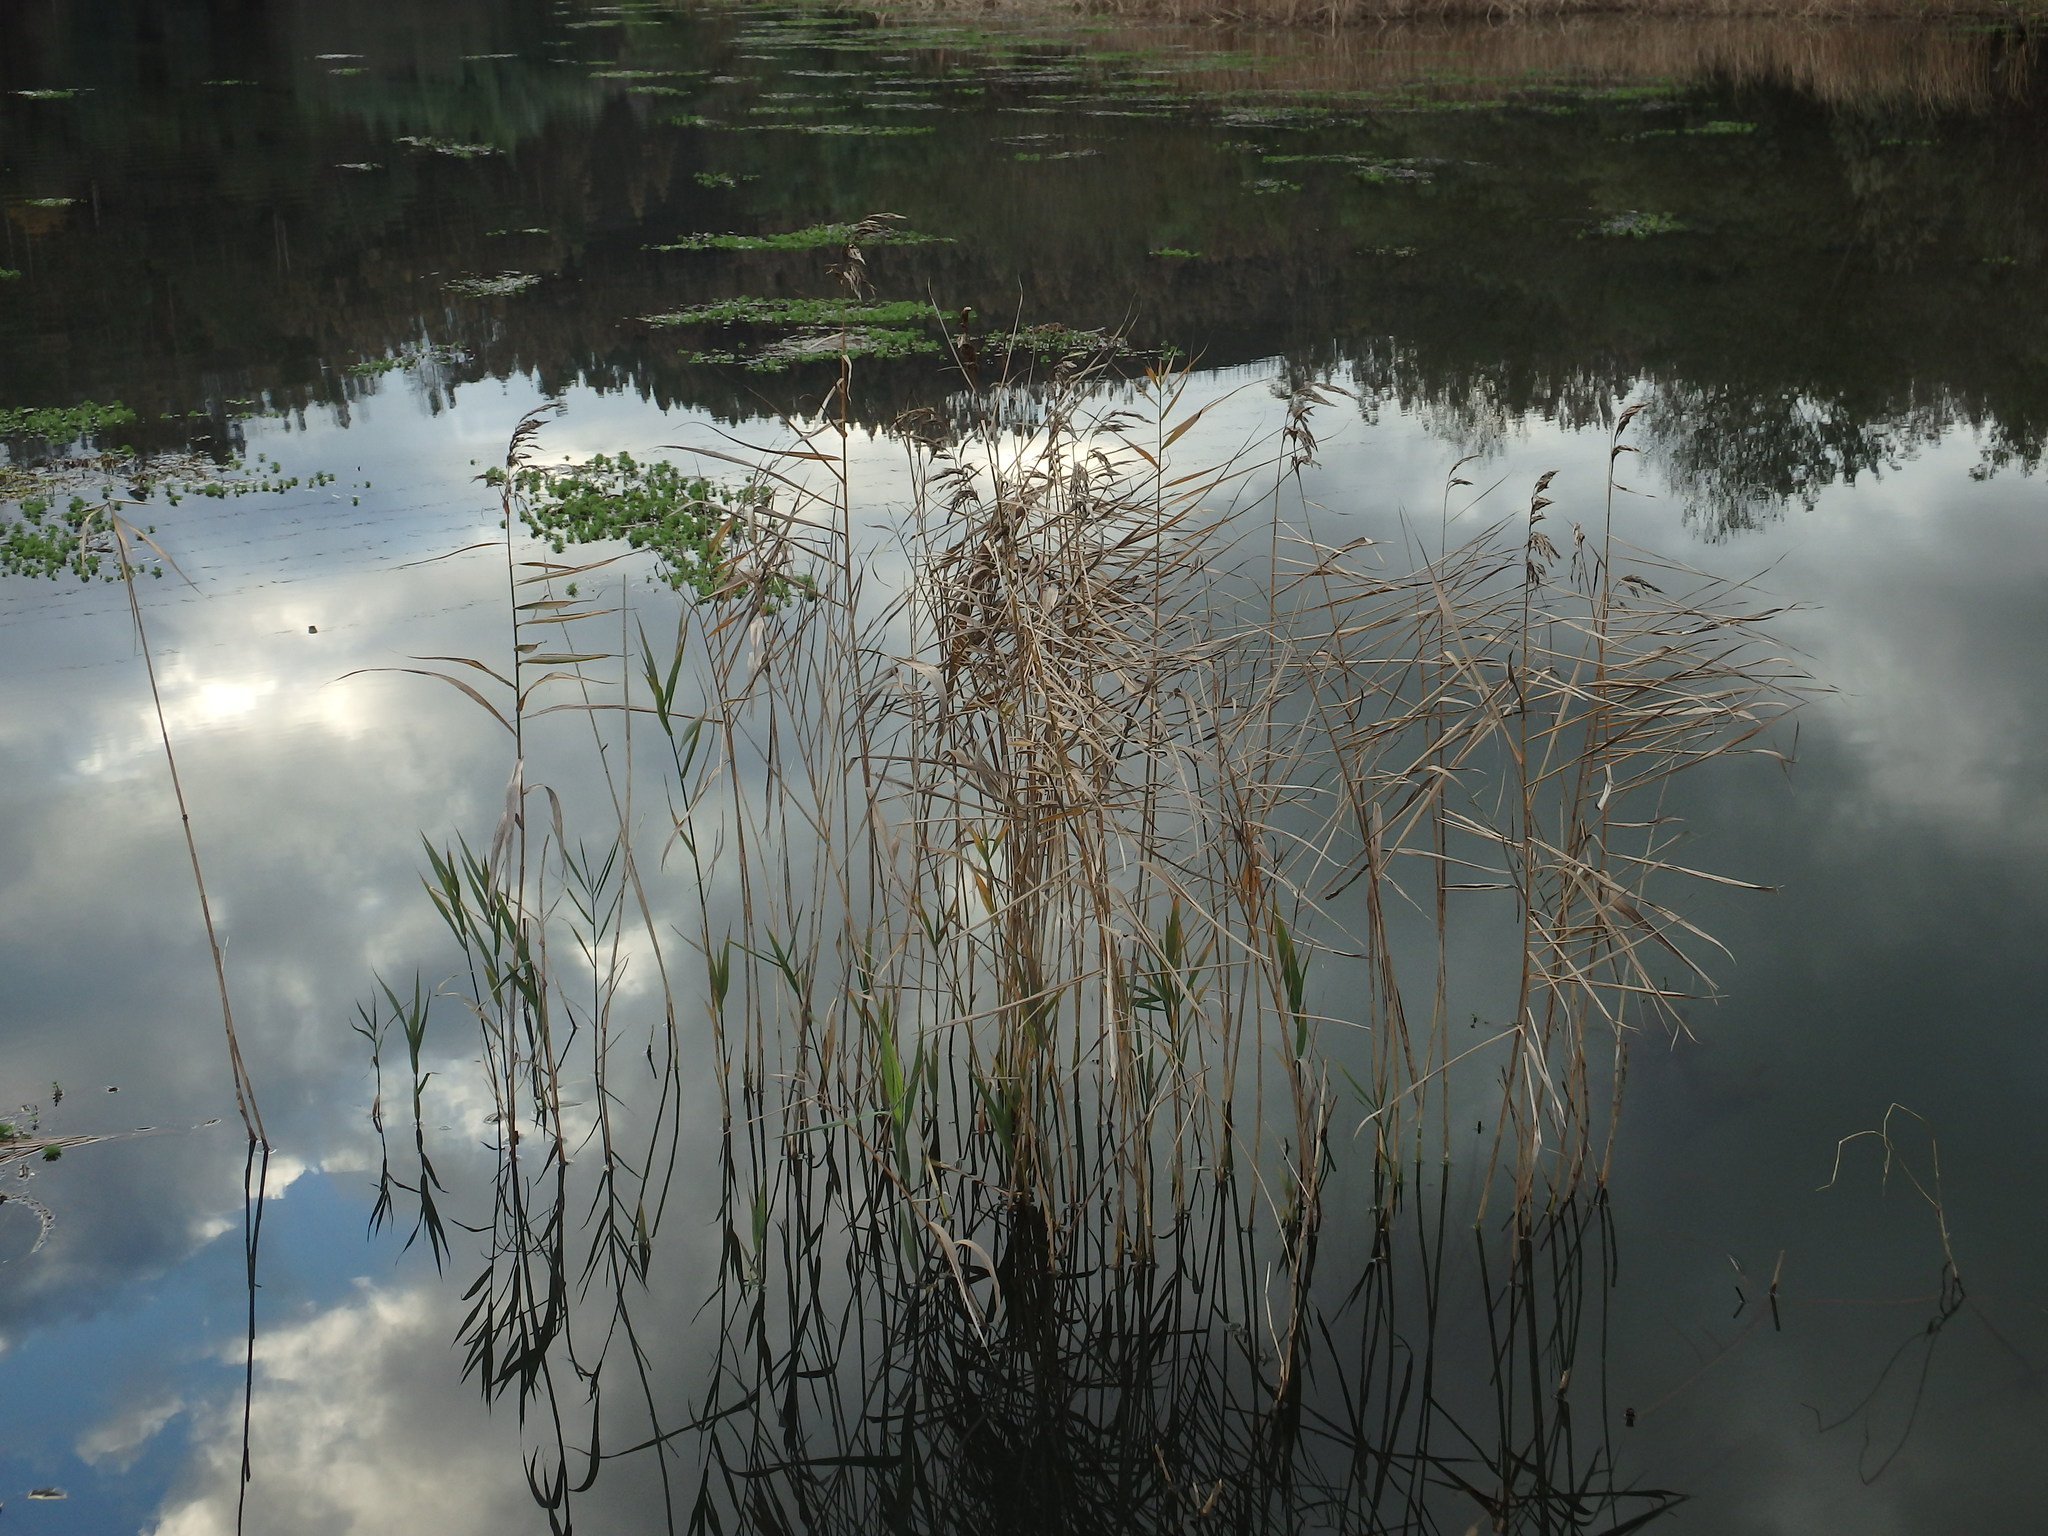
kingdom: Plantae
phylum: Tracheophyta
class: Liliopsida
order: Poales
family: Poaceae
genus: Phragmites
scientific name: Phragmites australis
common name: Common reed
